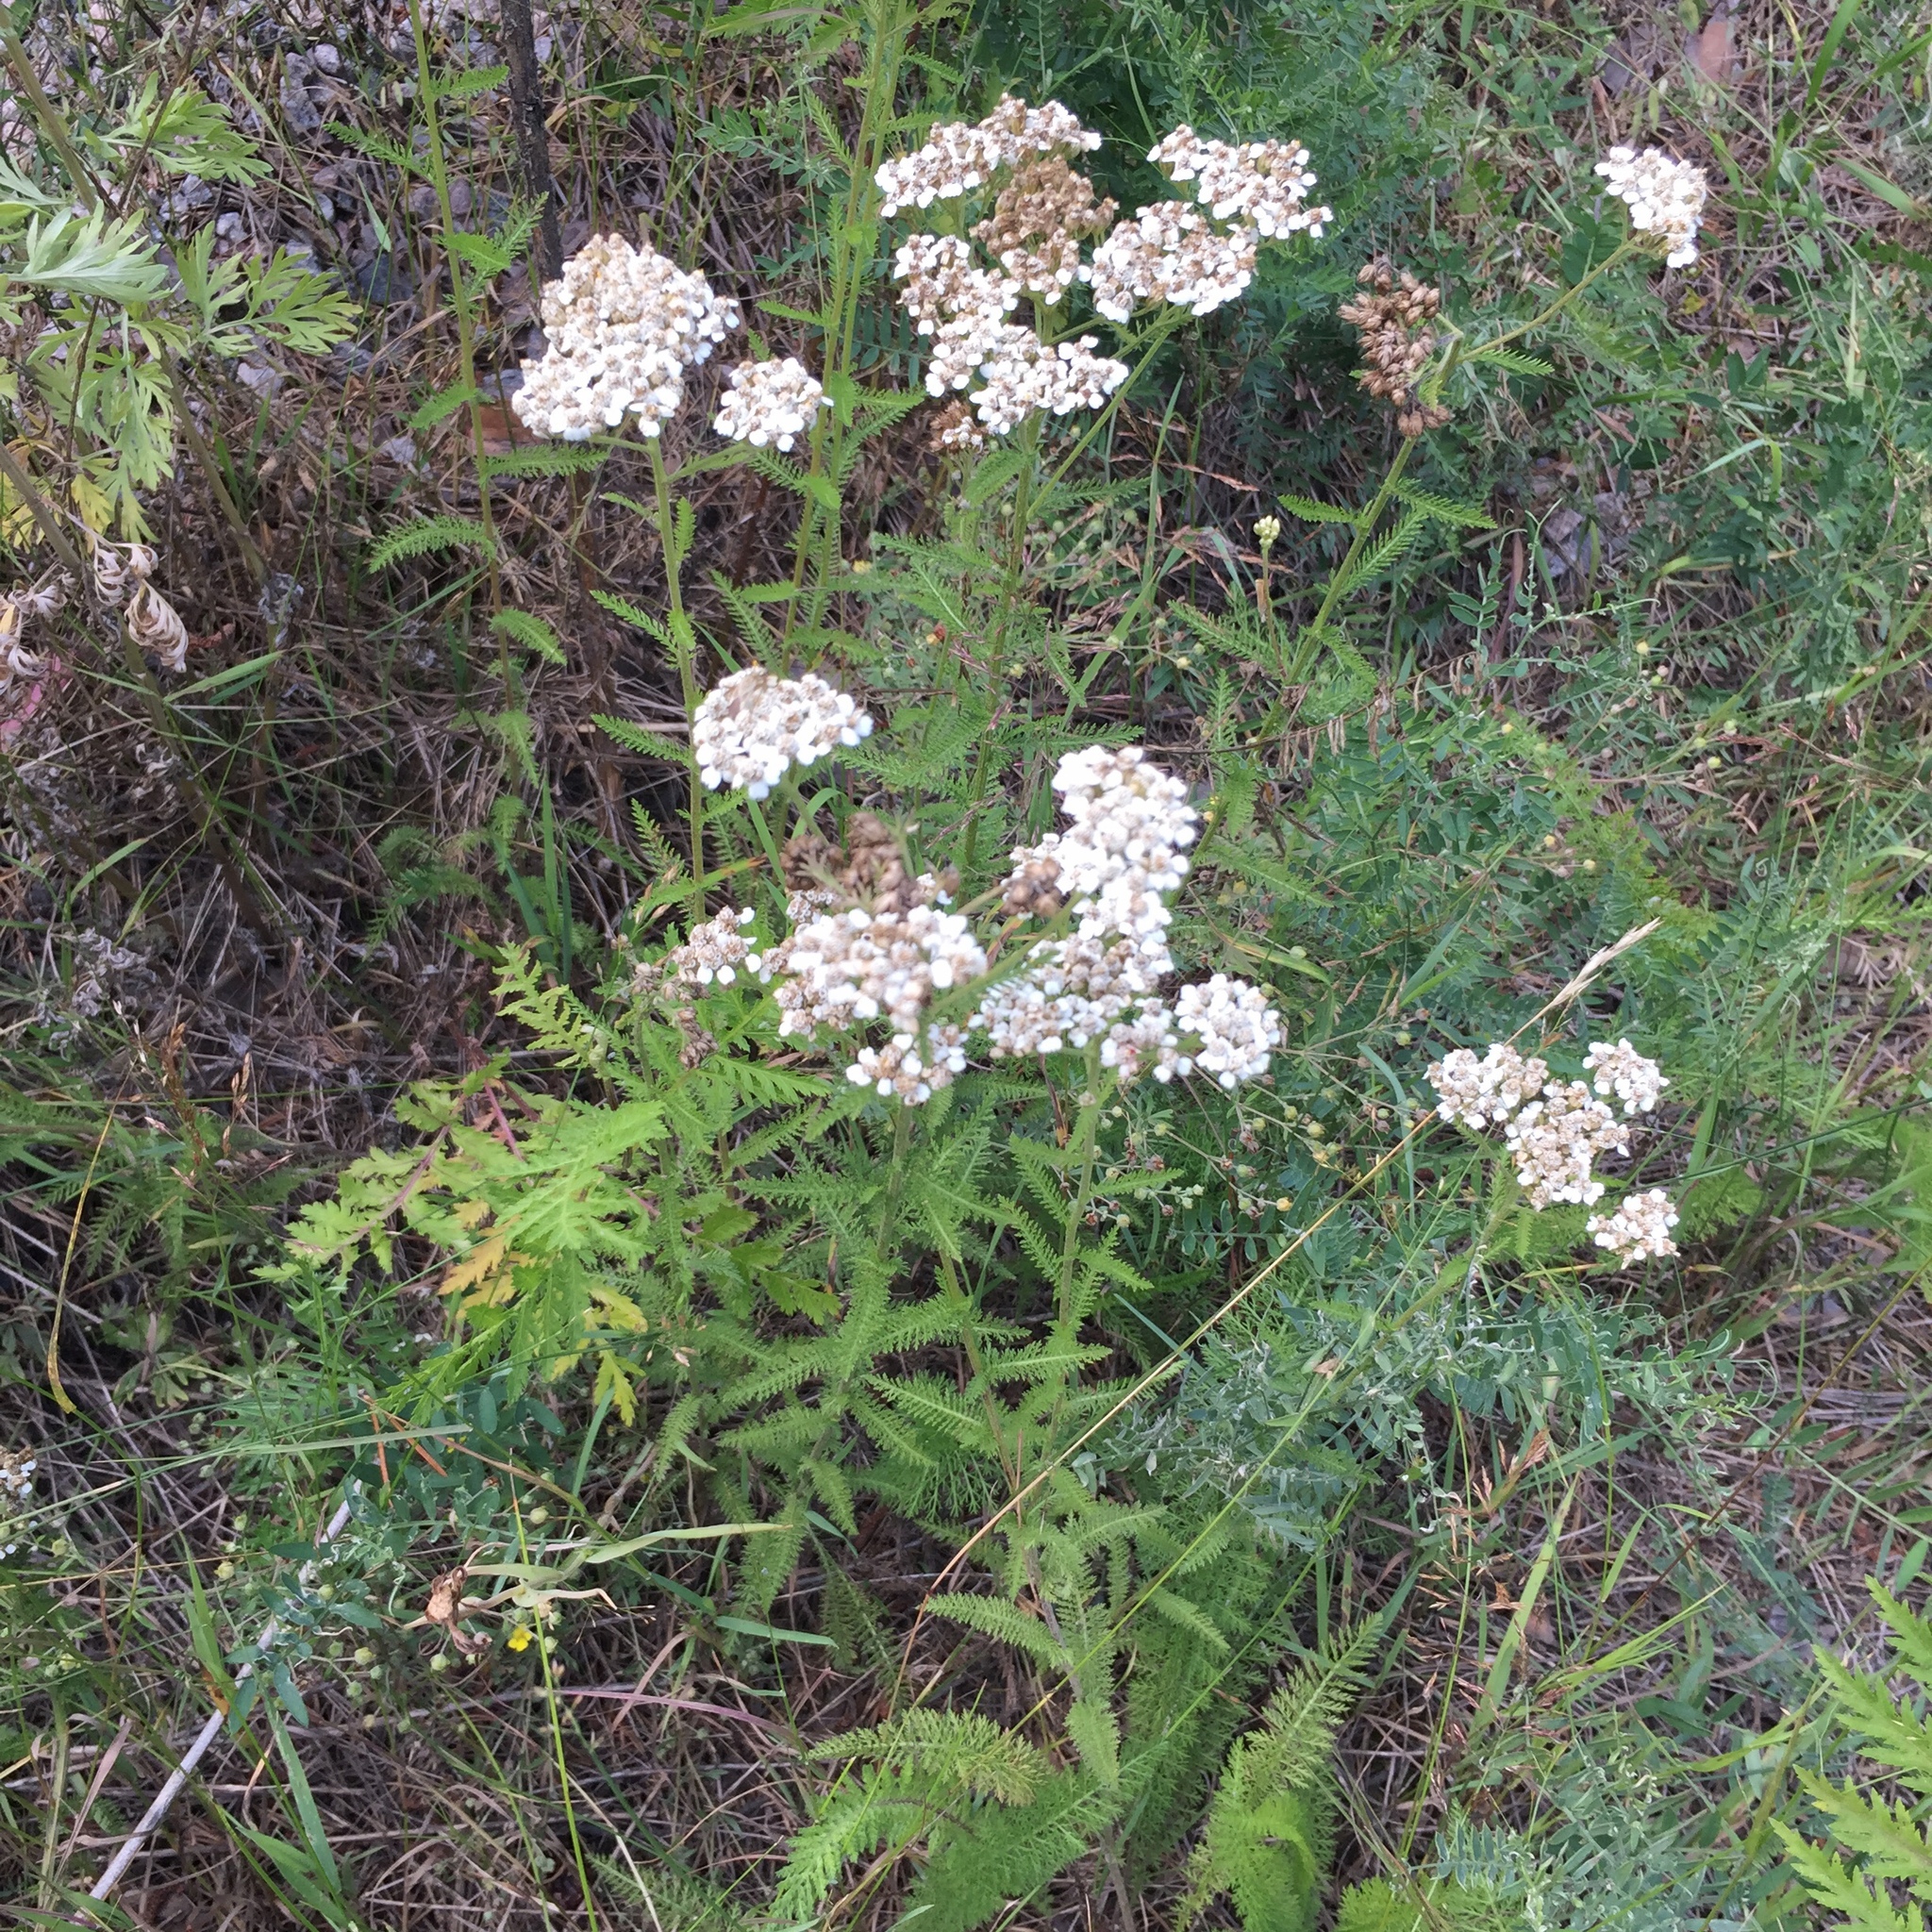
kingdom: Plantae
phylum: Tracheophyta
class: Magnoliopsida
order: Asterales
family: Asteraceae
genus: Achillea
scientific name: Achillea millefolium
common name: Yarrow
